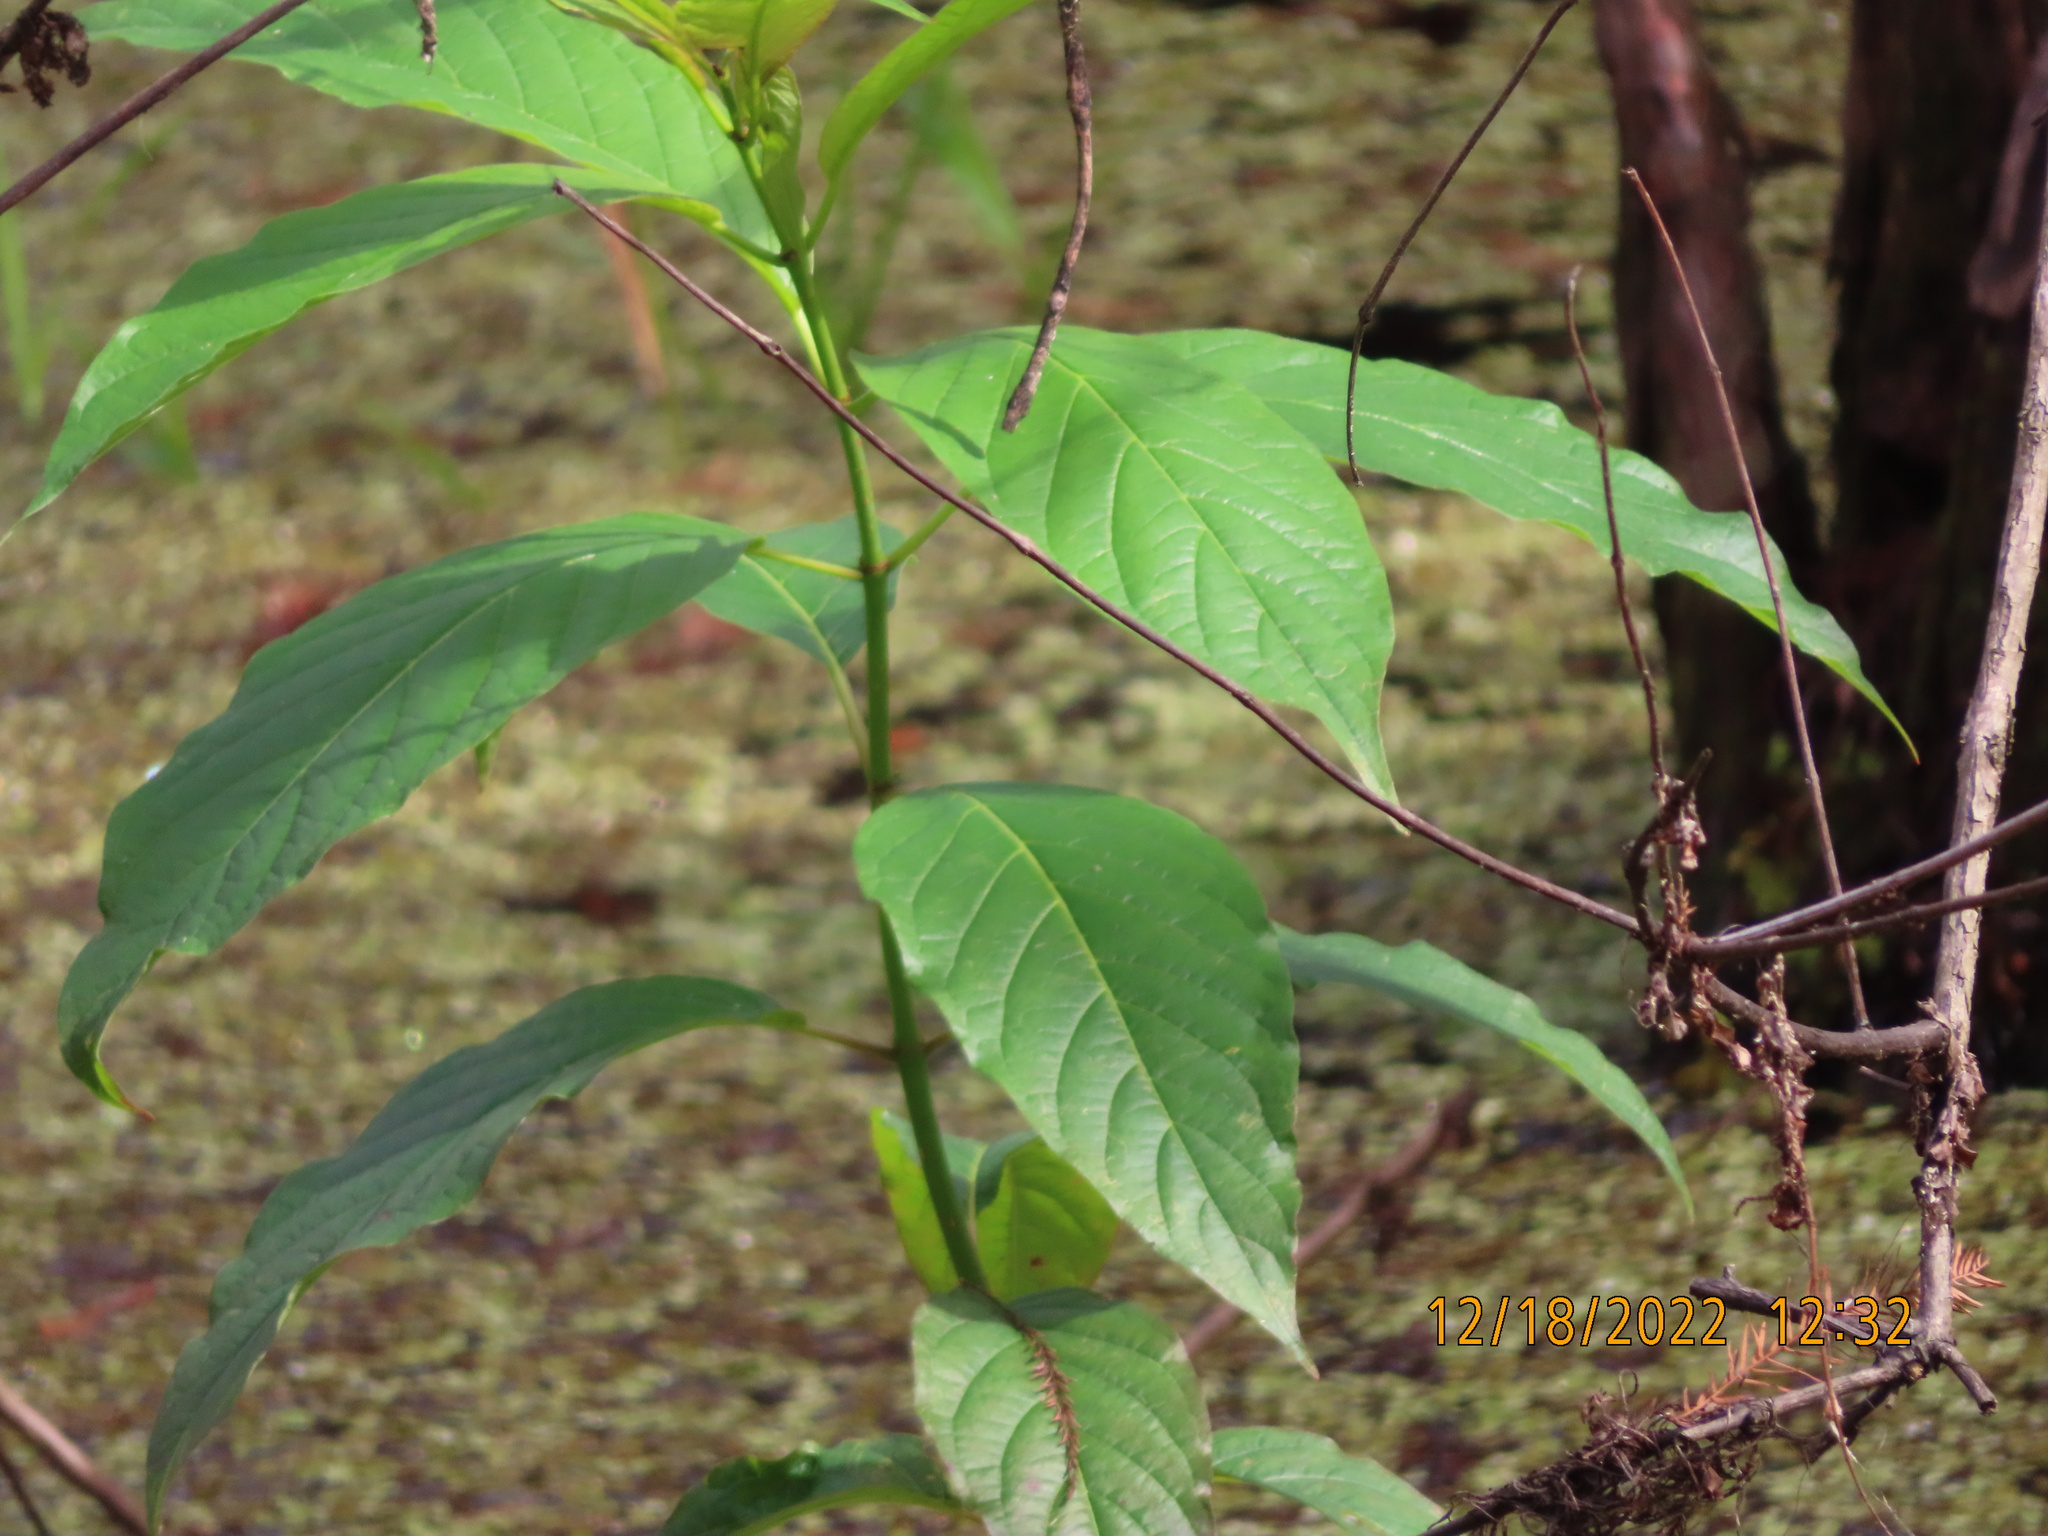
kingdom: Plantae
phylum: Tracheophyta
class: Magnoliopsida
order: Gentianales
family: Rubiaceae
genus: Cephalanthus
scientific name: Cephalanthus occidentalis
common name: Button-willow
